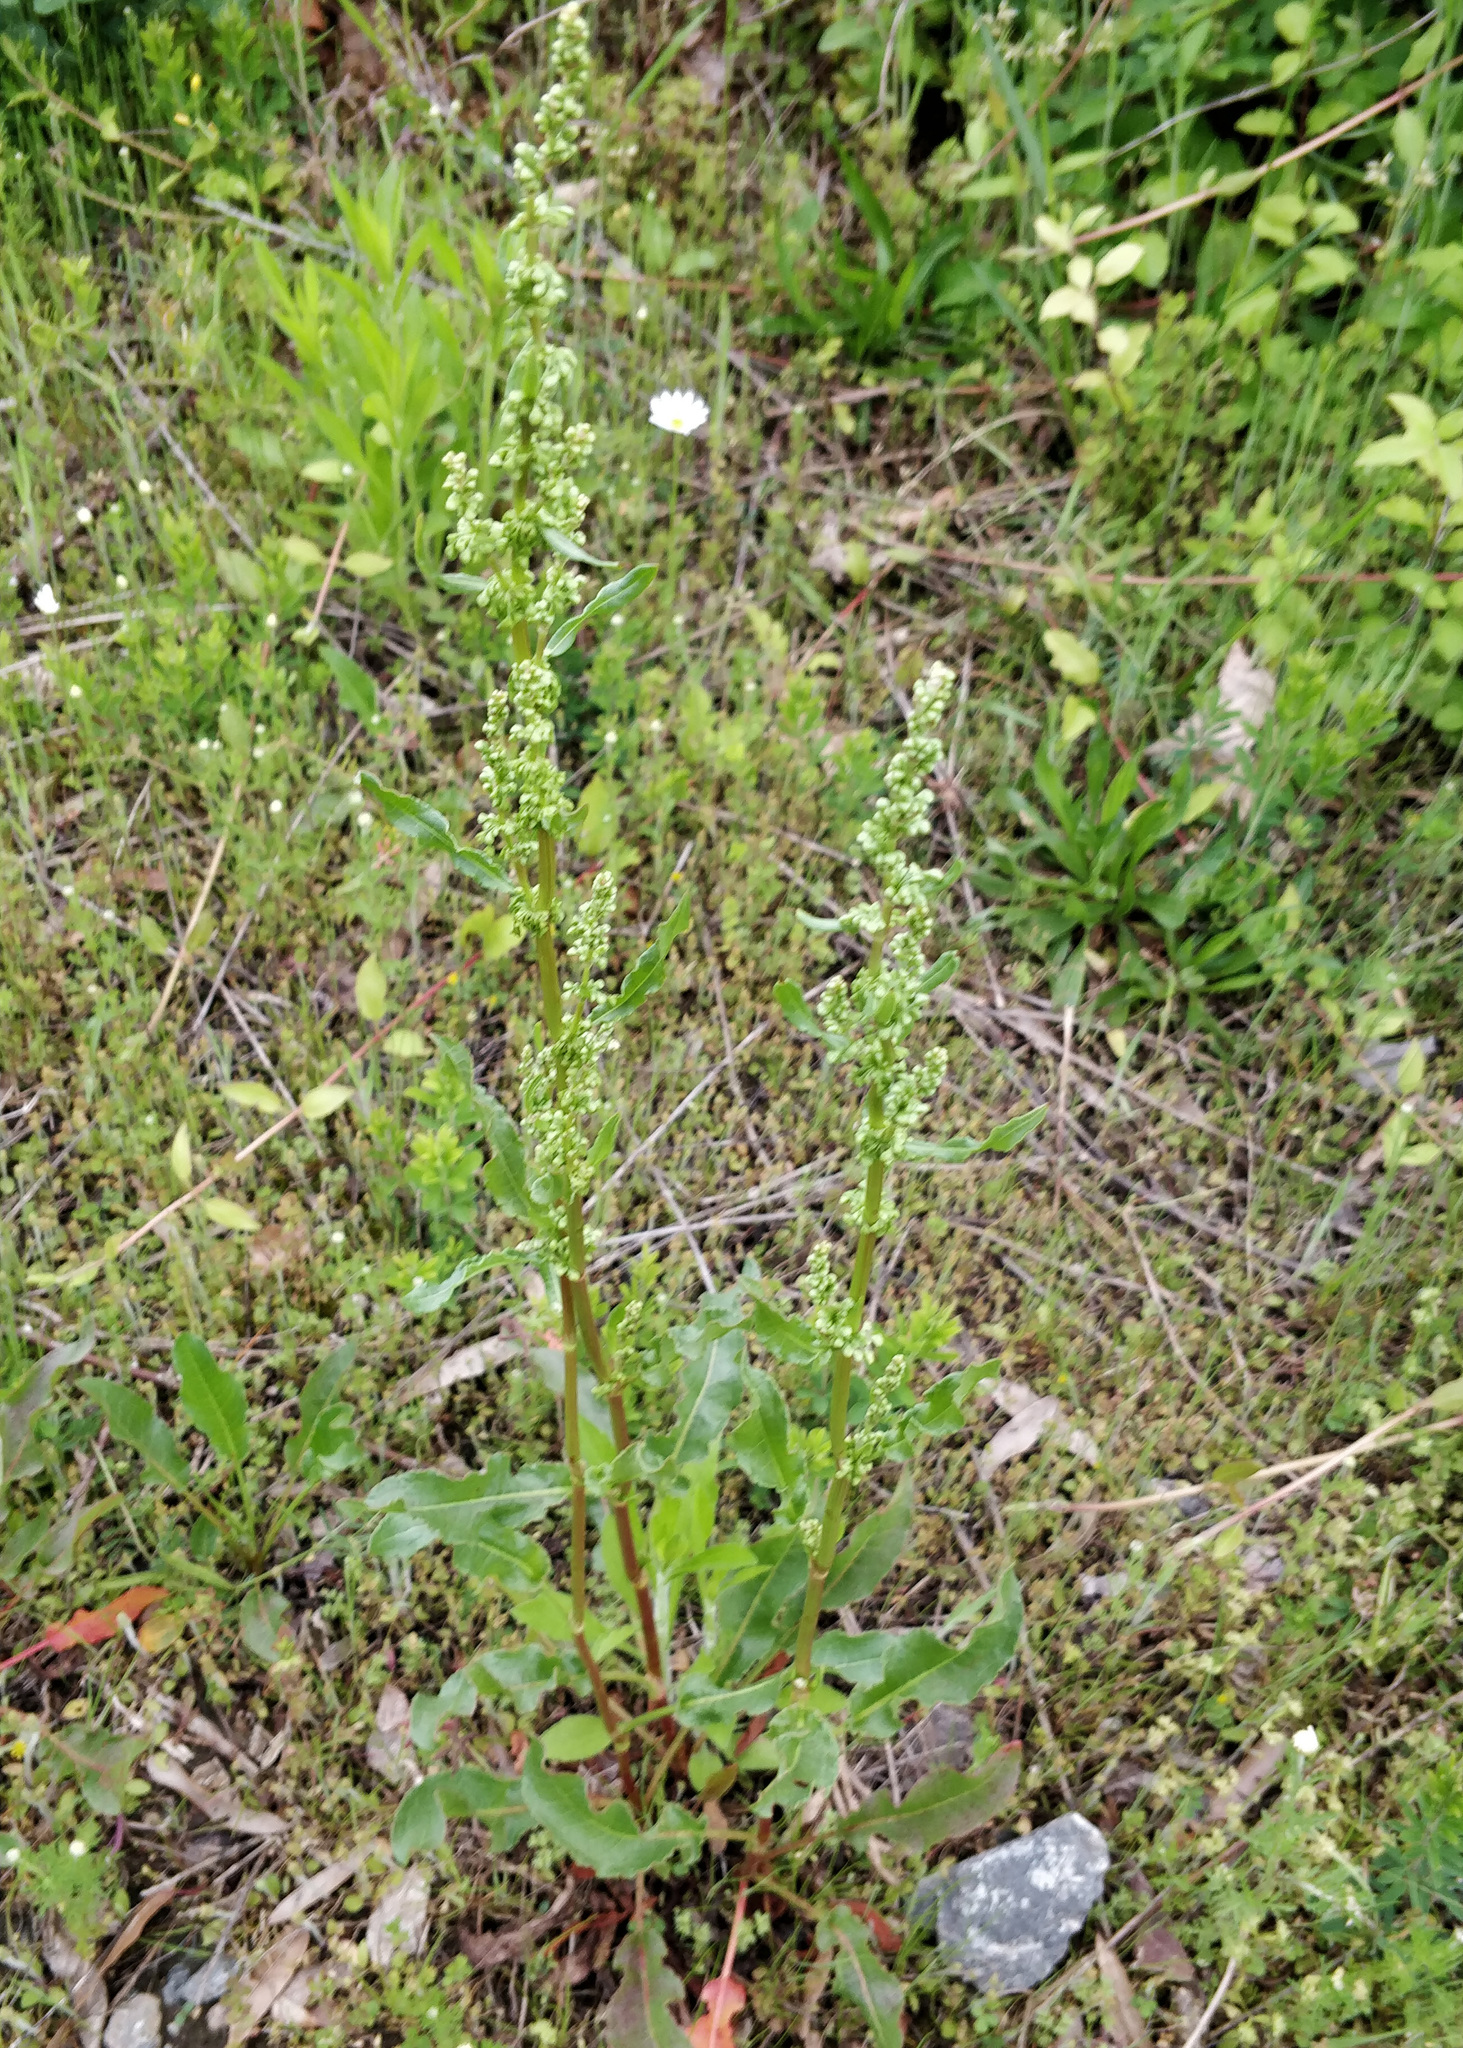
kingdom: Plantae
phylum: Tracheophyta
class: Magnoliopsida
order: Caryophyllales
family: Polygonaceae
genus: Rumex
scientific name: Rumex crispus
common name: Curled dock
